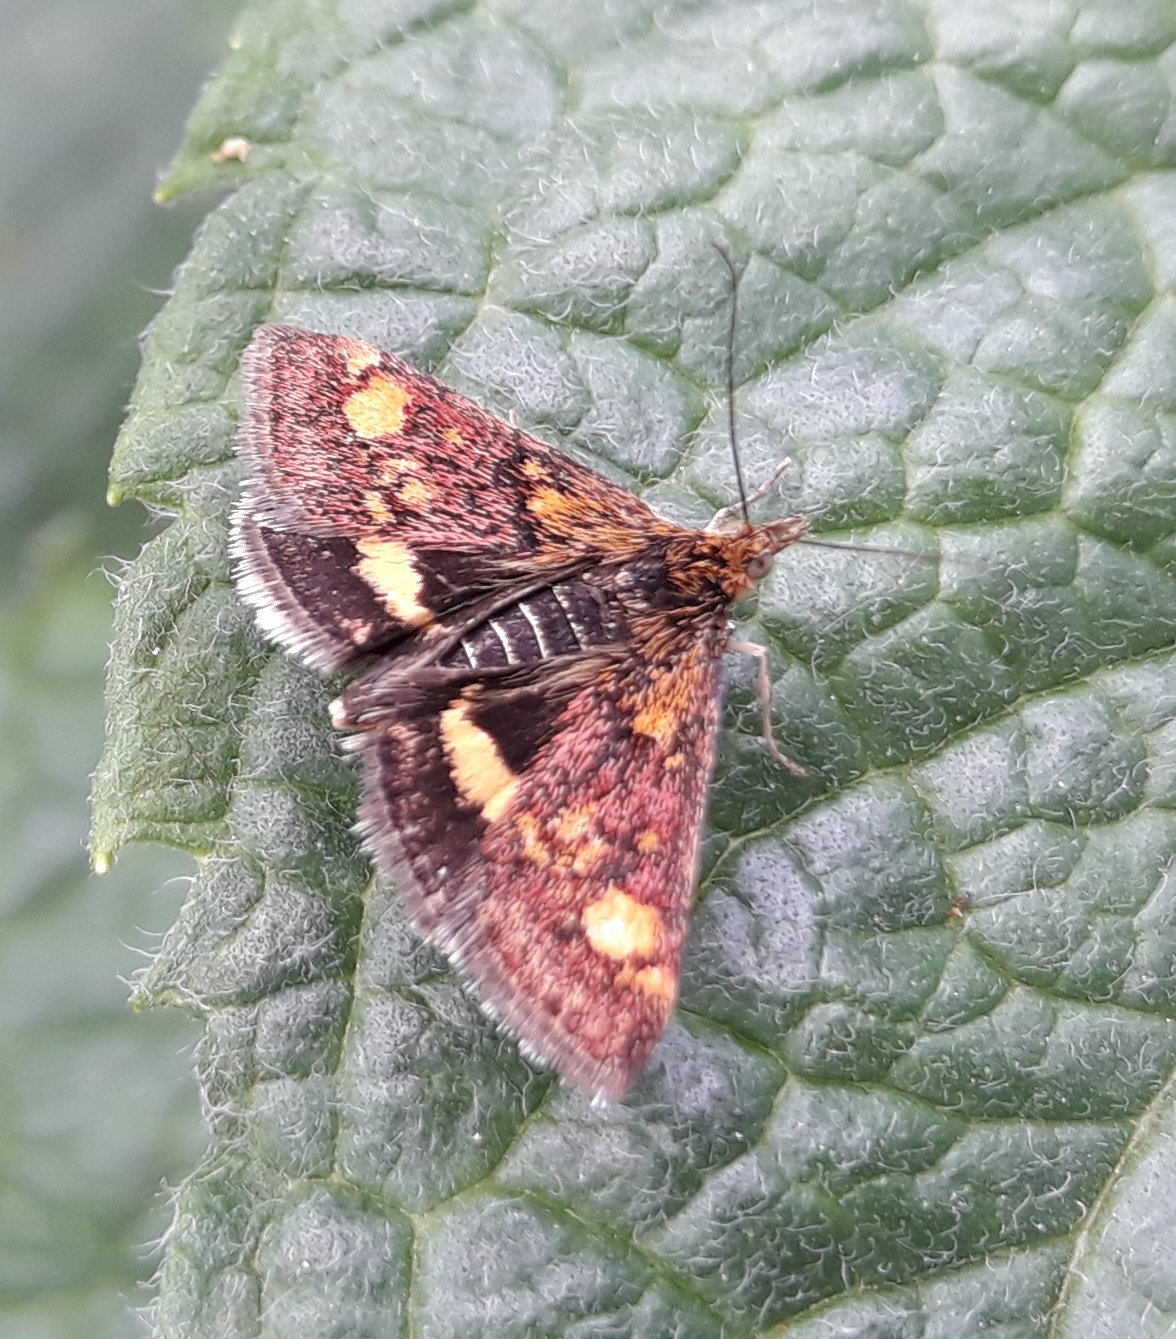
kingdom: Animalia
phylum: Arthropoda
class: Insecta
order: Lepidoptera
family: Crambidae
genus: Pyrausta
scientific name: Pyrausta aurata
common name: Small purple & gold
